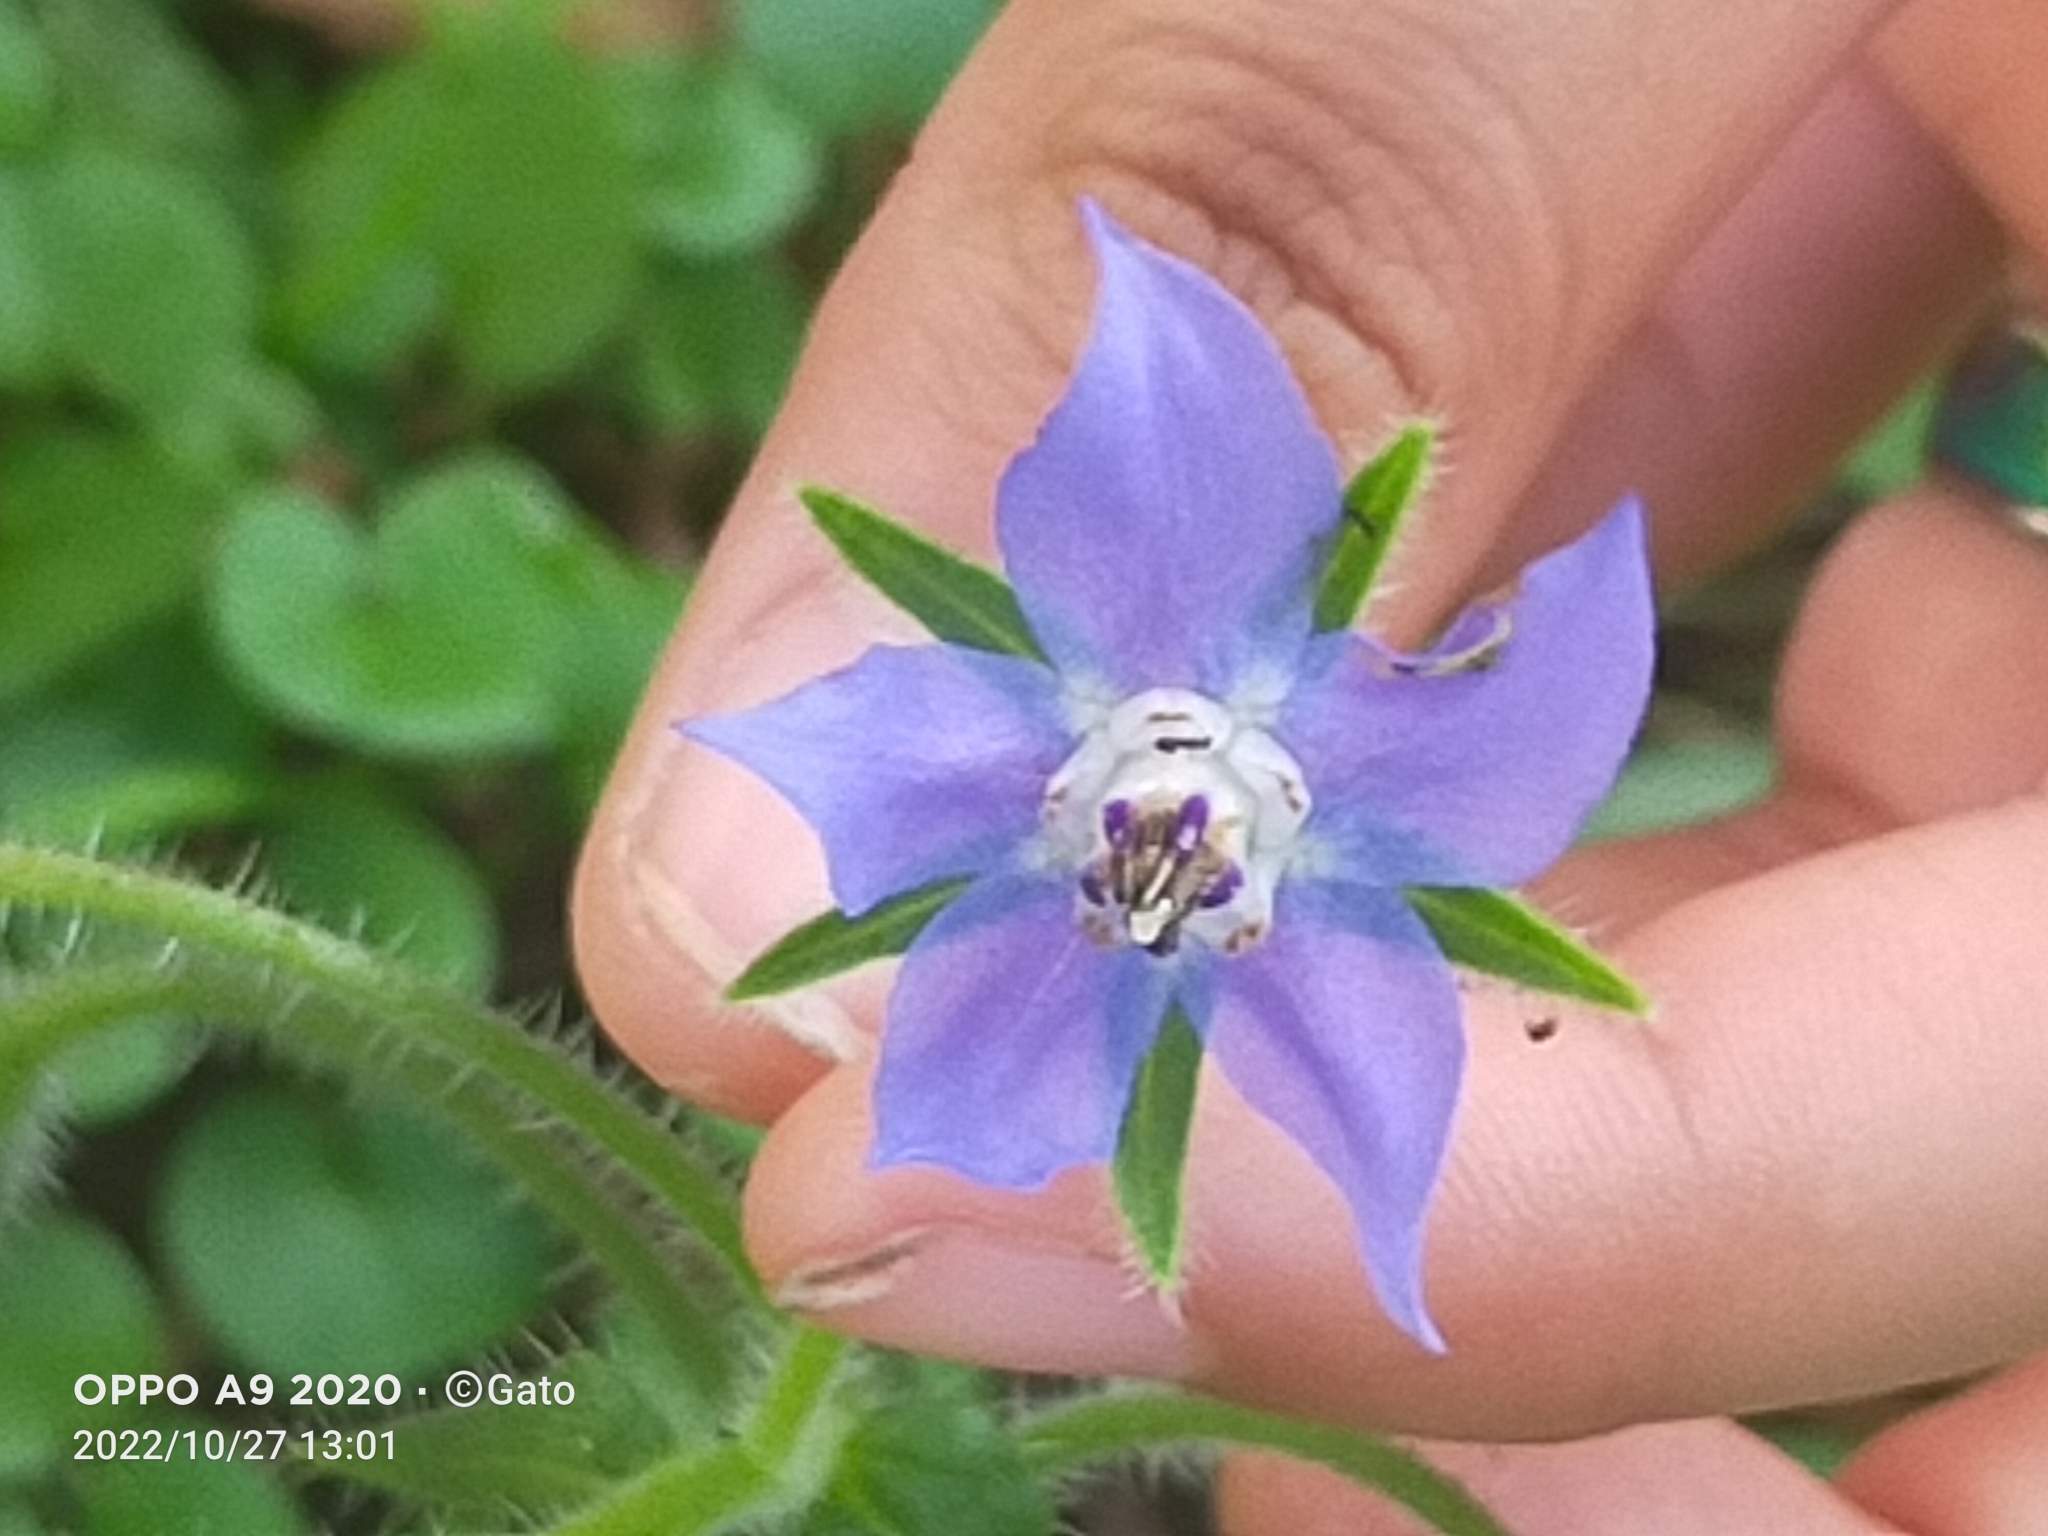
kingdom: Plantae
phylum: Tracheophyta
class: Magnoliopsida
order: Boraginales
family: Boraginaceae
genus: Borago
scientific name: Borago officinalis
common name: Borage
